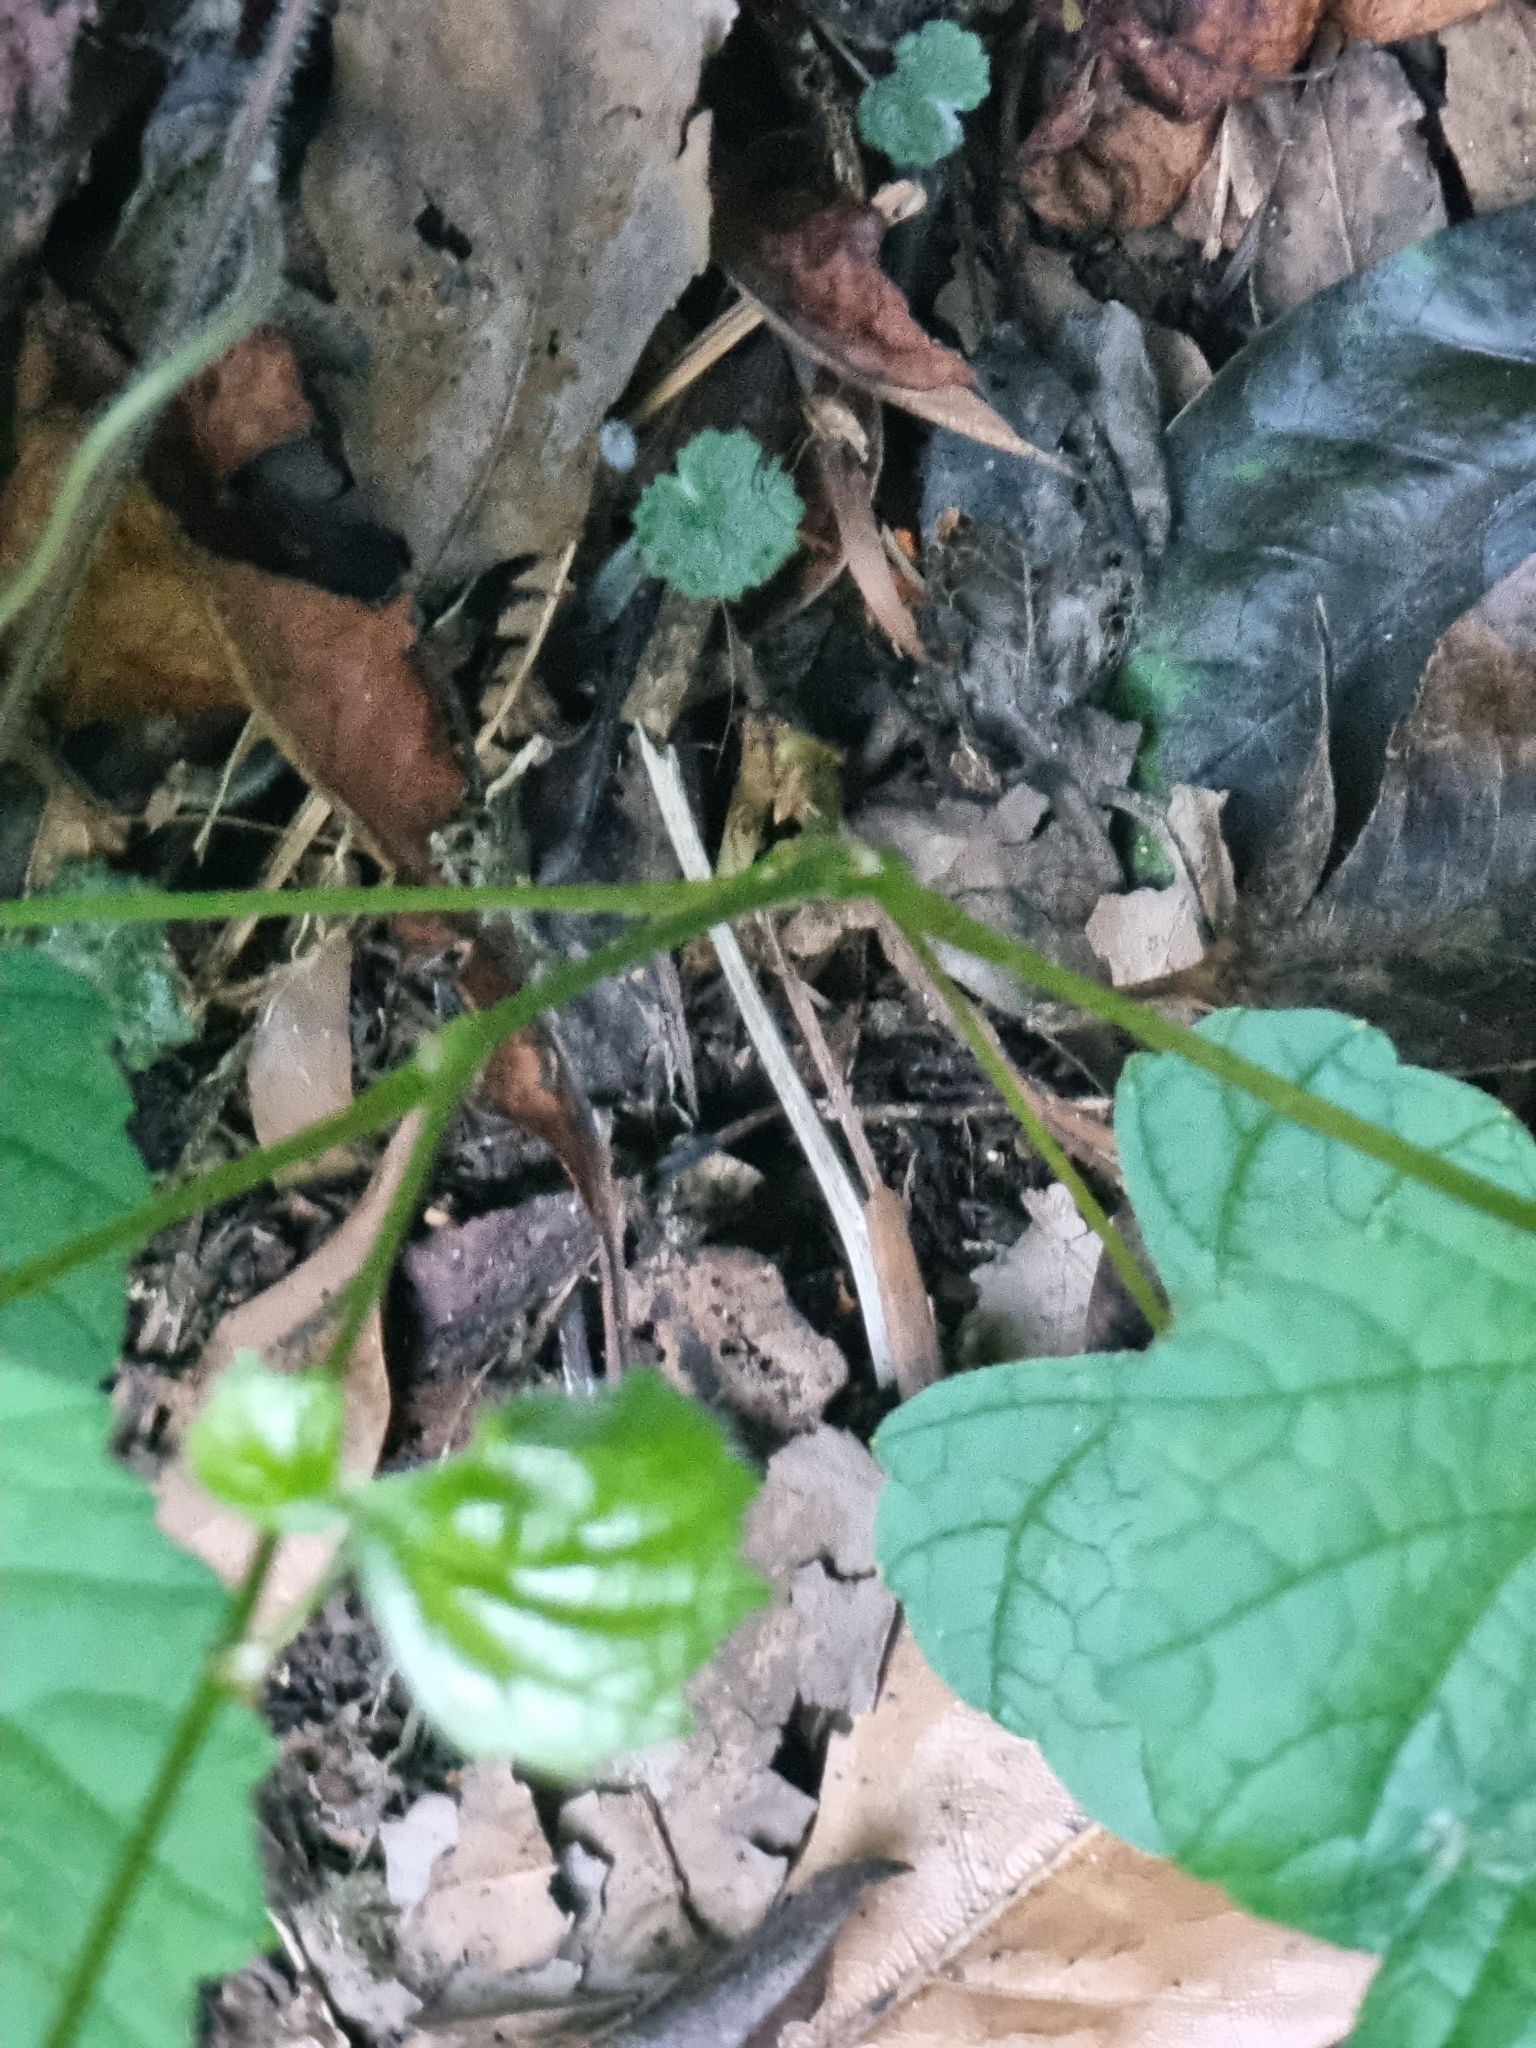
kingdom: Plantae
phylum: Tracheophyta
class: Magnoliopsida
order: Vitales
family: Vitaceae
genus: Vitis
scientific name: Vitis vinifera
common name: Grape-vine
